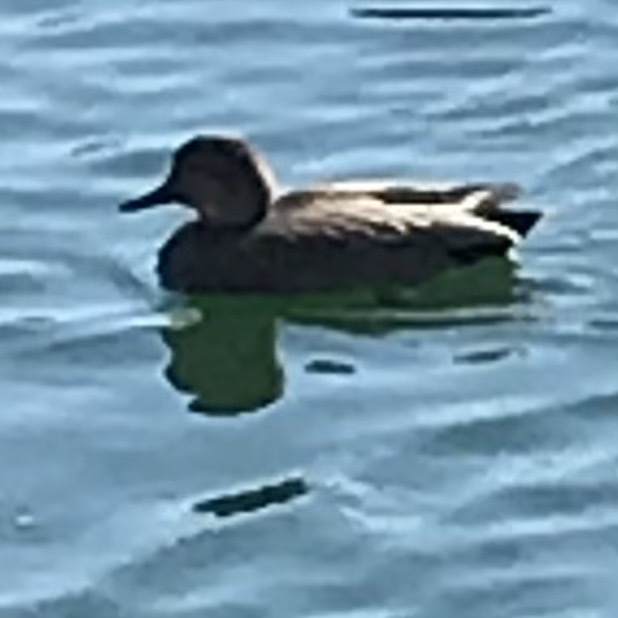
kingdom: Animalia
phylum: Chordata
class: Aves
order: Anseriformes
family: Anatidae
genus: Mareca
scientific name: Mareca strepera
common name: Gadwall
